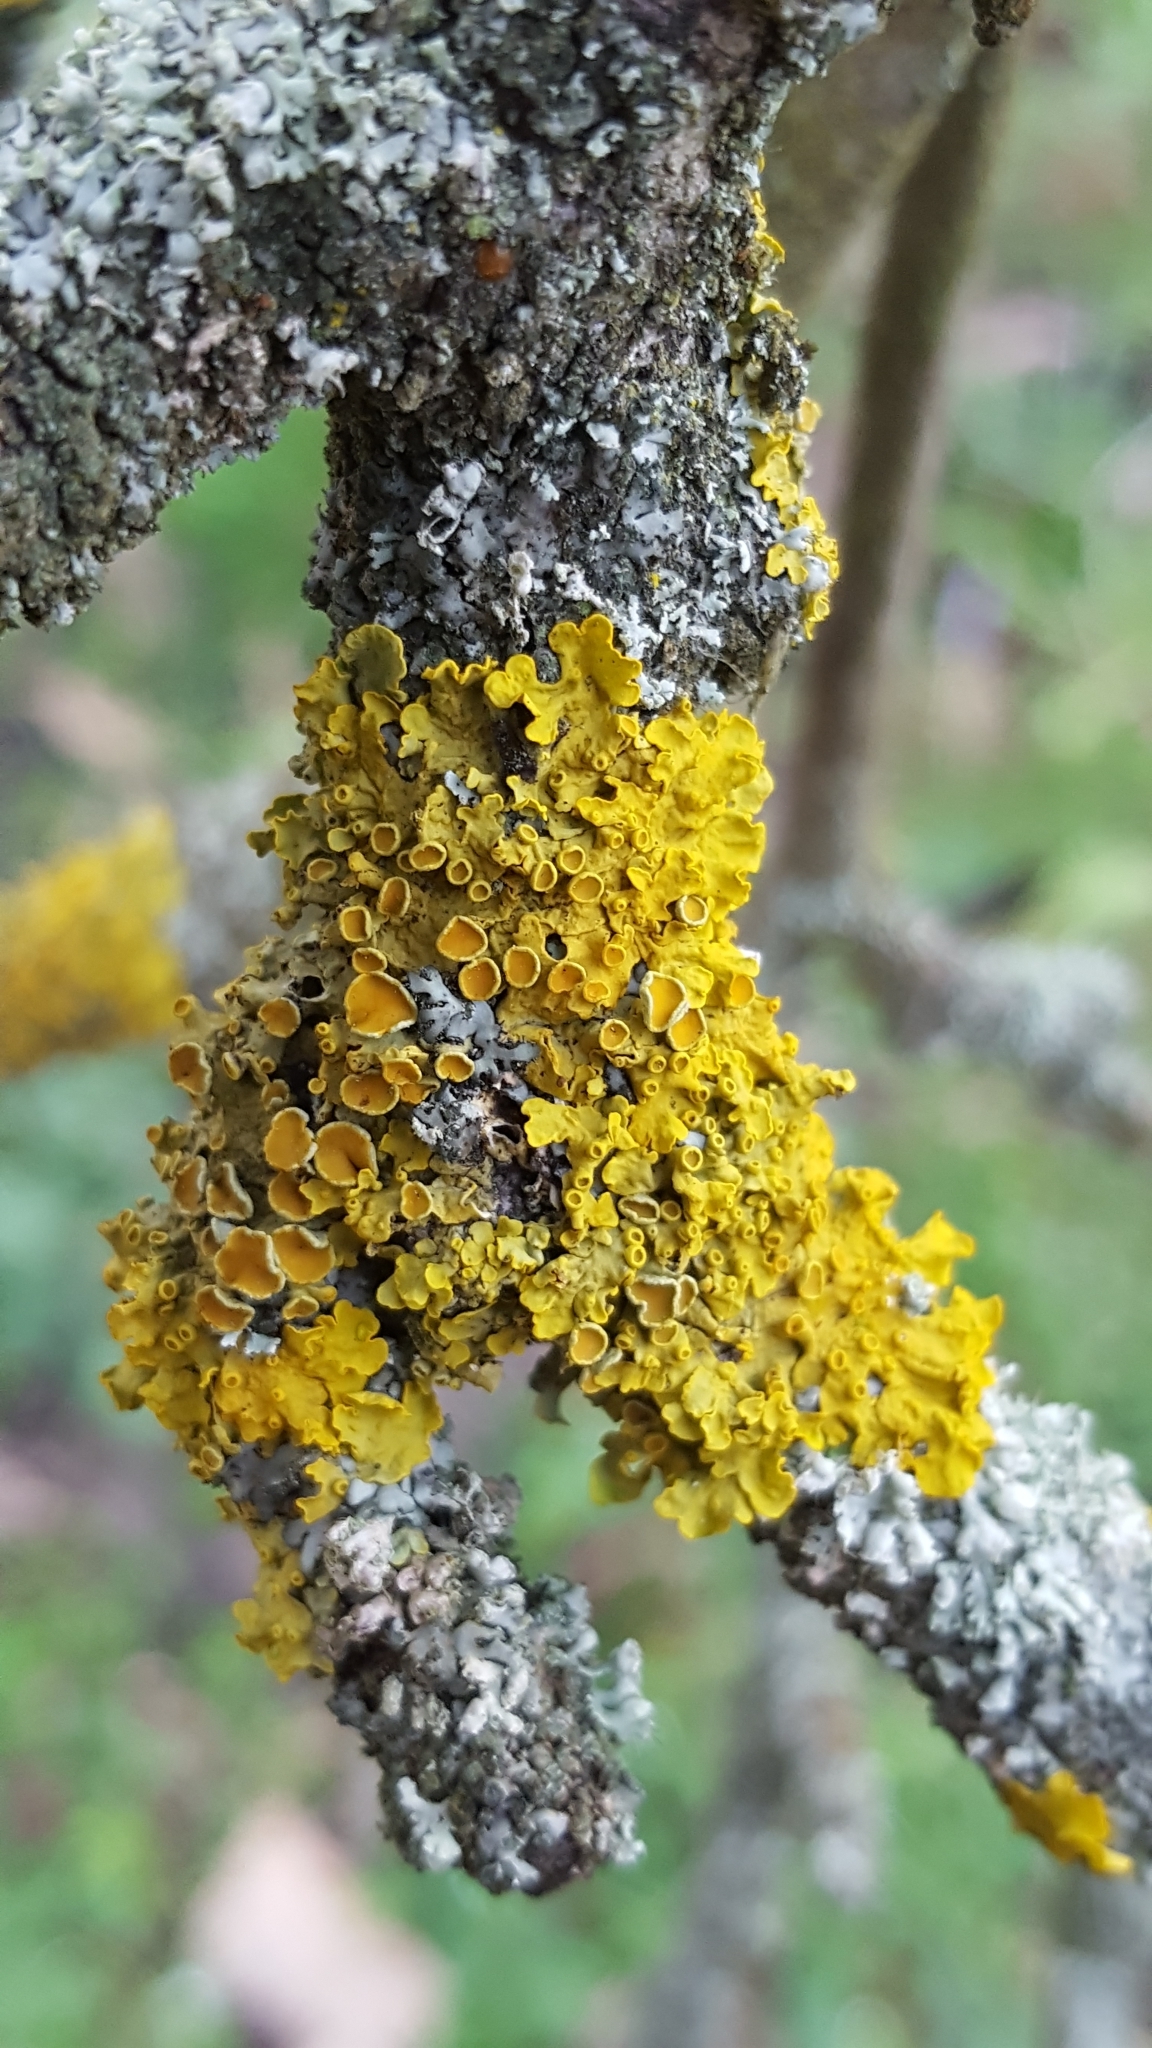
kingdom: Fungi
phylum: Ascomycota
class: Lecanoromycetes
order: Teloschistales
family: Teloschistaceae
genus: Xanthoria
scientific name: Xanthoria parietina
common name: Common orange lichen
